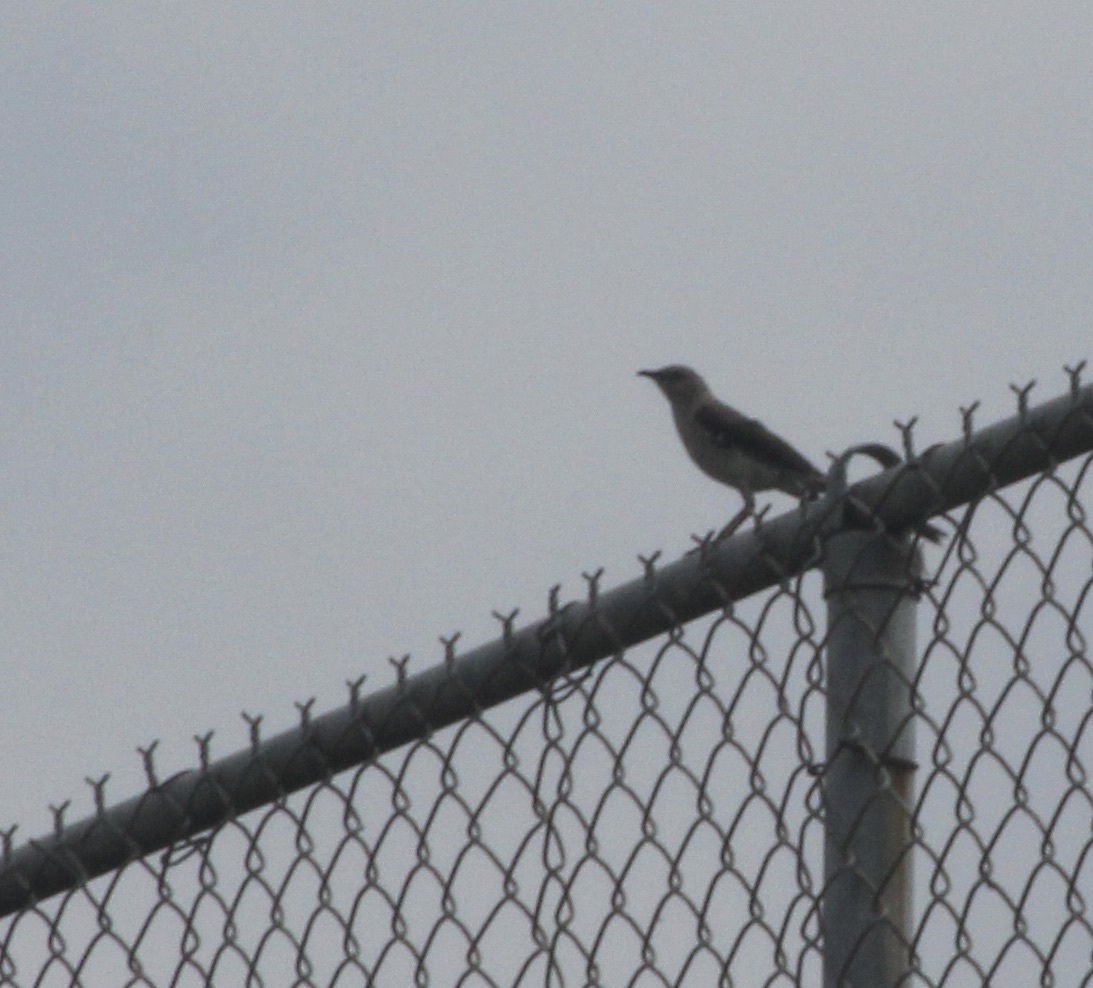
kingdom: Animalia
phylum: Chordata
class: Aves
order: Passeriformes
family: Mimidae
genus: Mimus
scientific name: Mimus polyglottos
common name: Northern mockingbird
